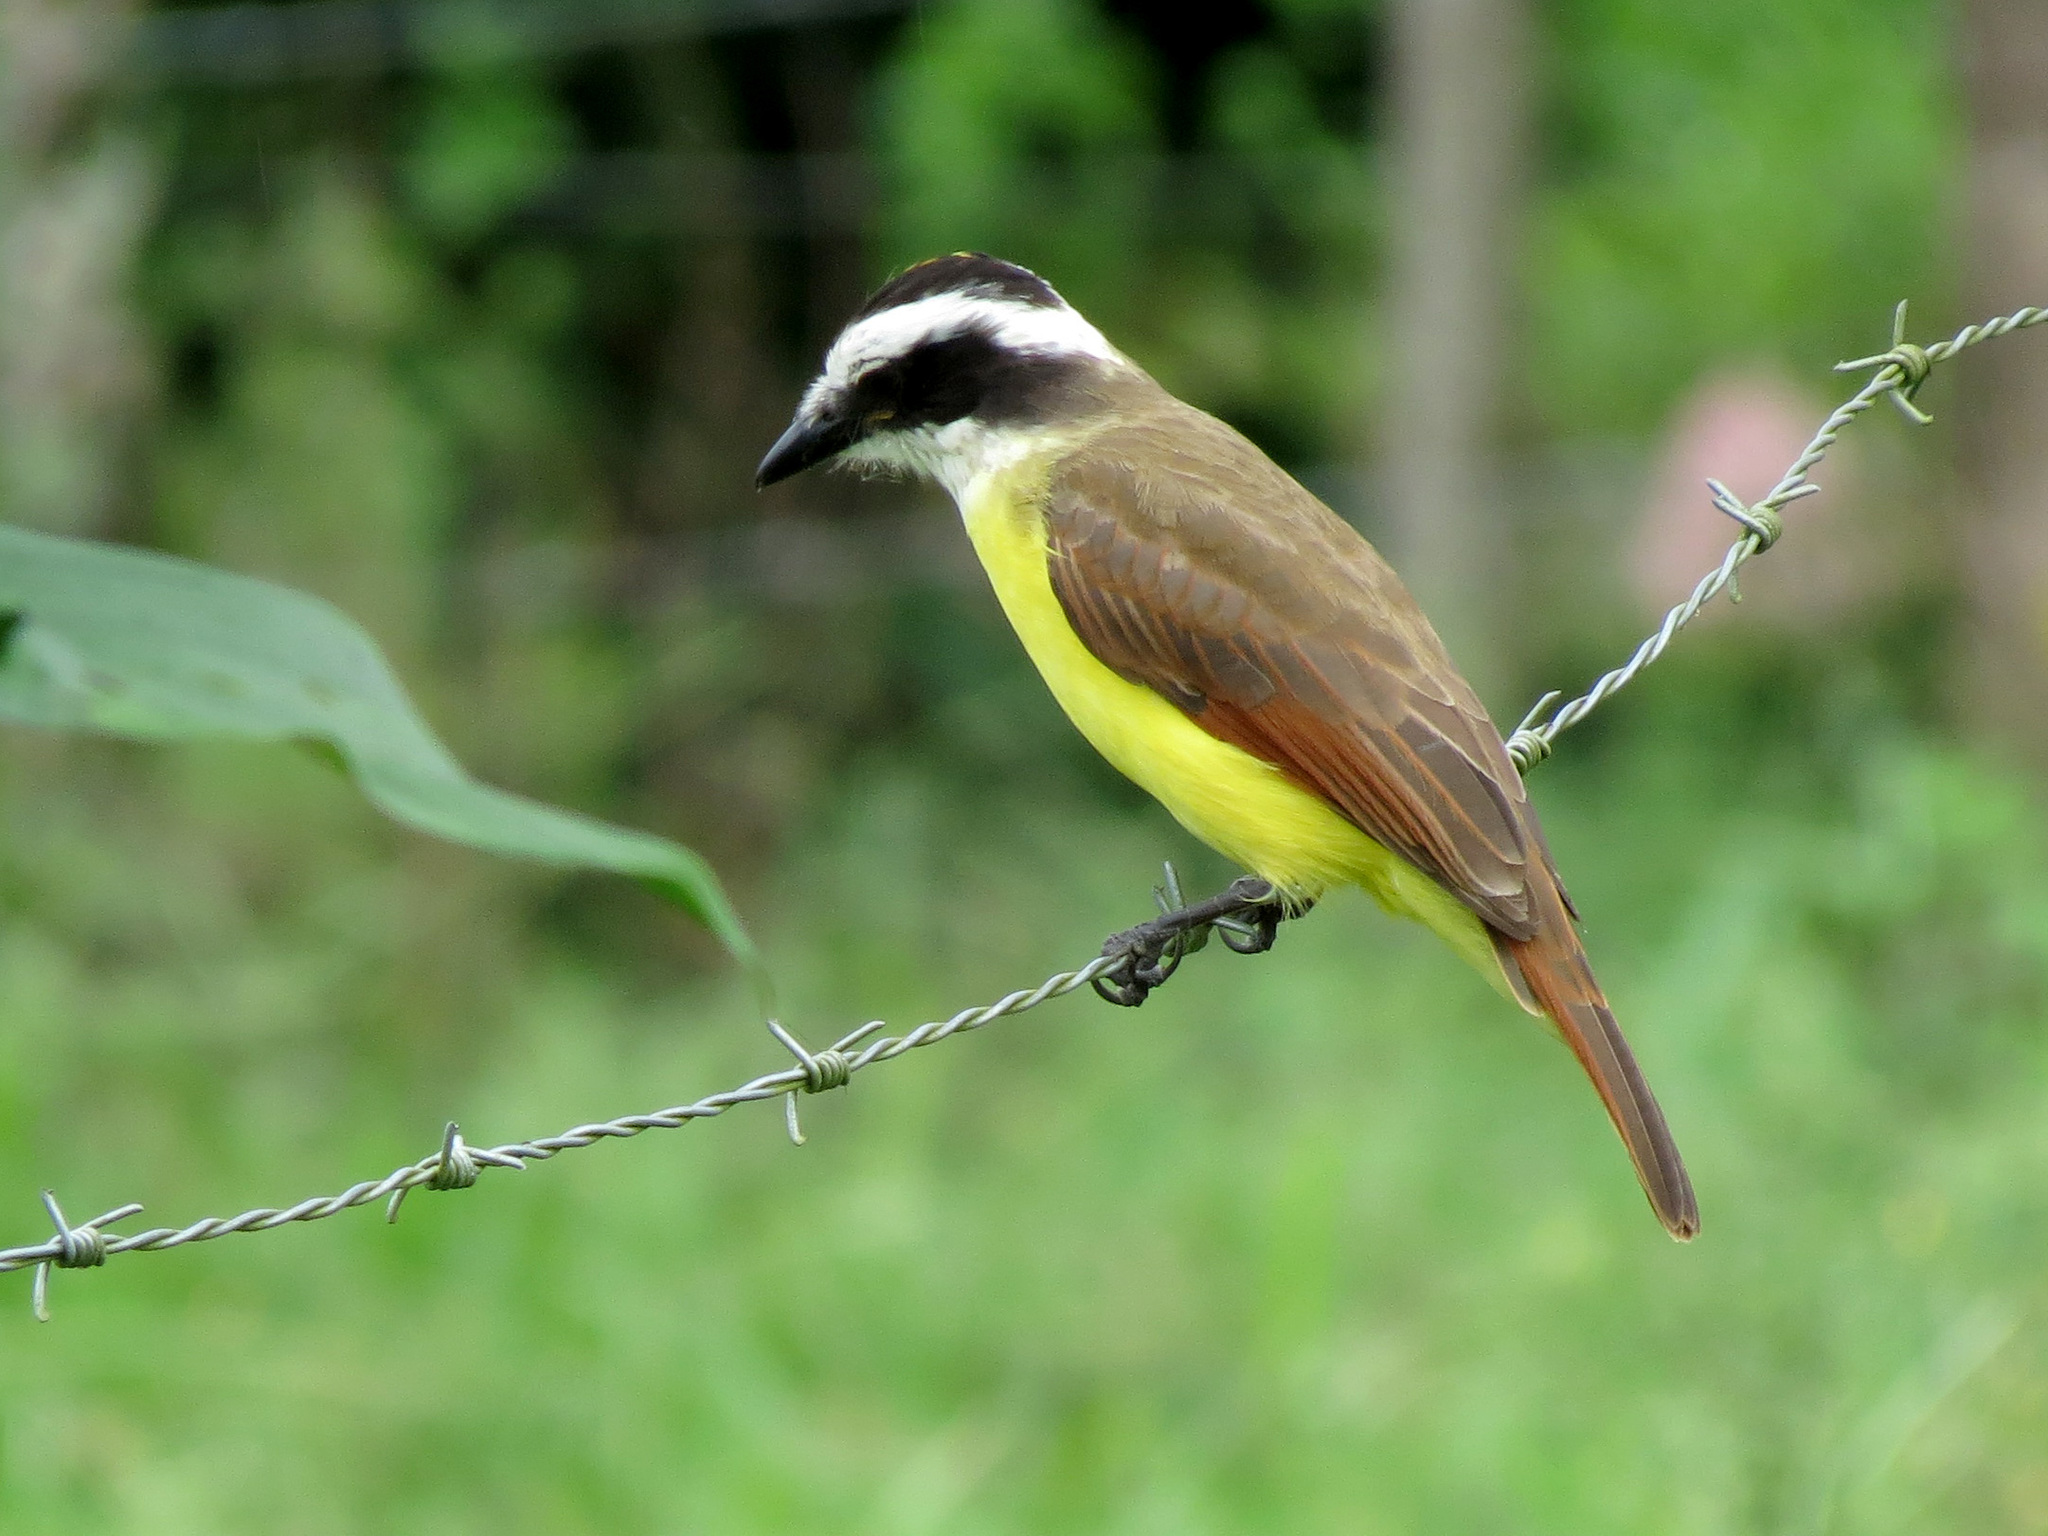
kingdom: Animalia
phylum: Chordata
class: Aves
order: Passeriformes
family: Tyrannidae
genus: Pitangus
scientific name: Pitangus sulphuratus
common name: Great kiskadee
